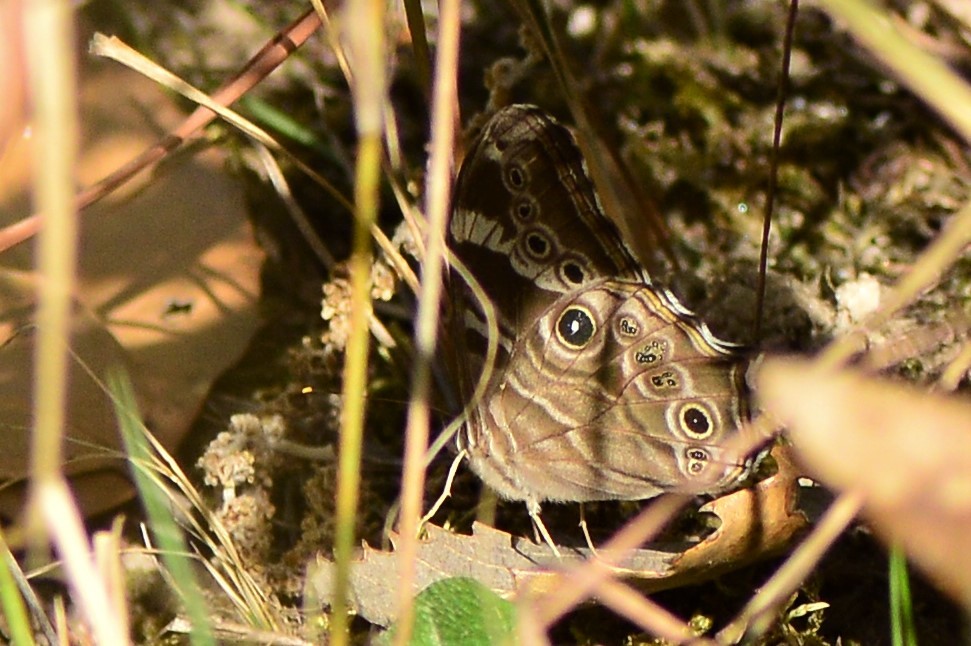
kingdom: Animalia
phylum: Arthropoda
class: Insecta
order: Lepidoptera
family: Nymphalidae
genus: Lethe
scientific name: Lethe rohria
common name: Common treebrown
